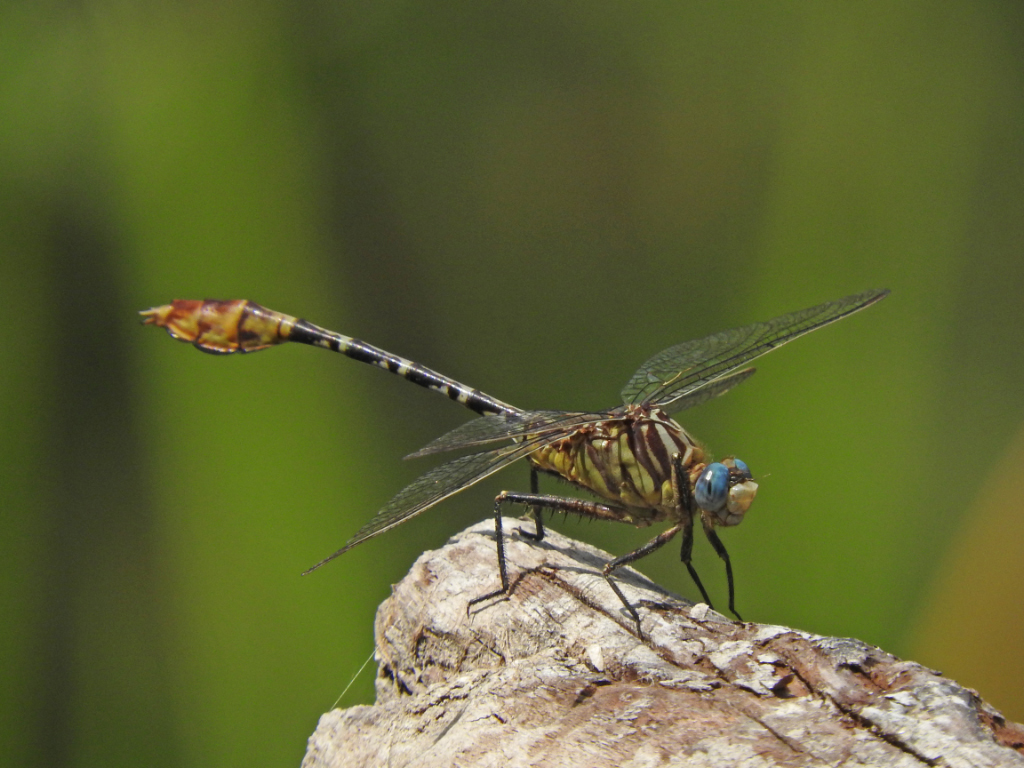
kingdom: Animalia
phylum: Arthropoda
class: Insecta
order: Odonata
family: Gomphidae
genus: Dromogomphus
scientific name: Dromogomphus spoliatus
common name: Flag-tailed spinyleg
